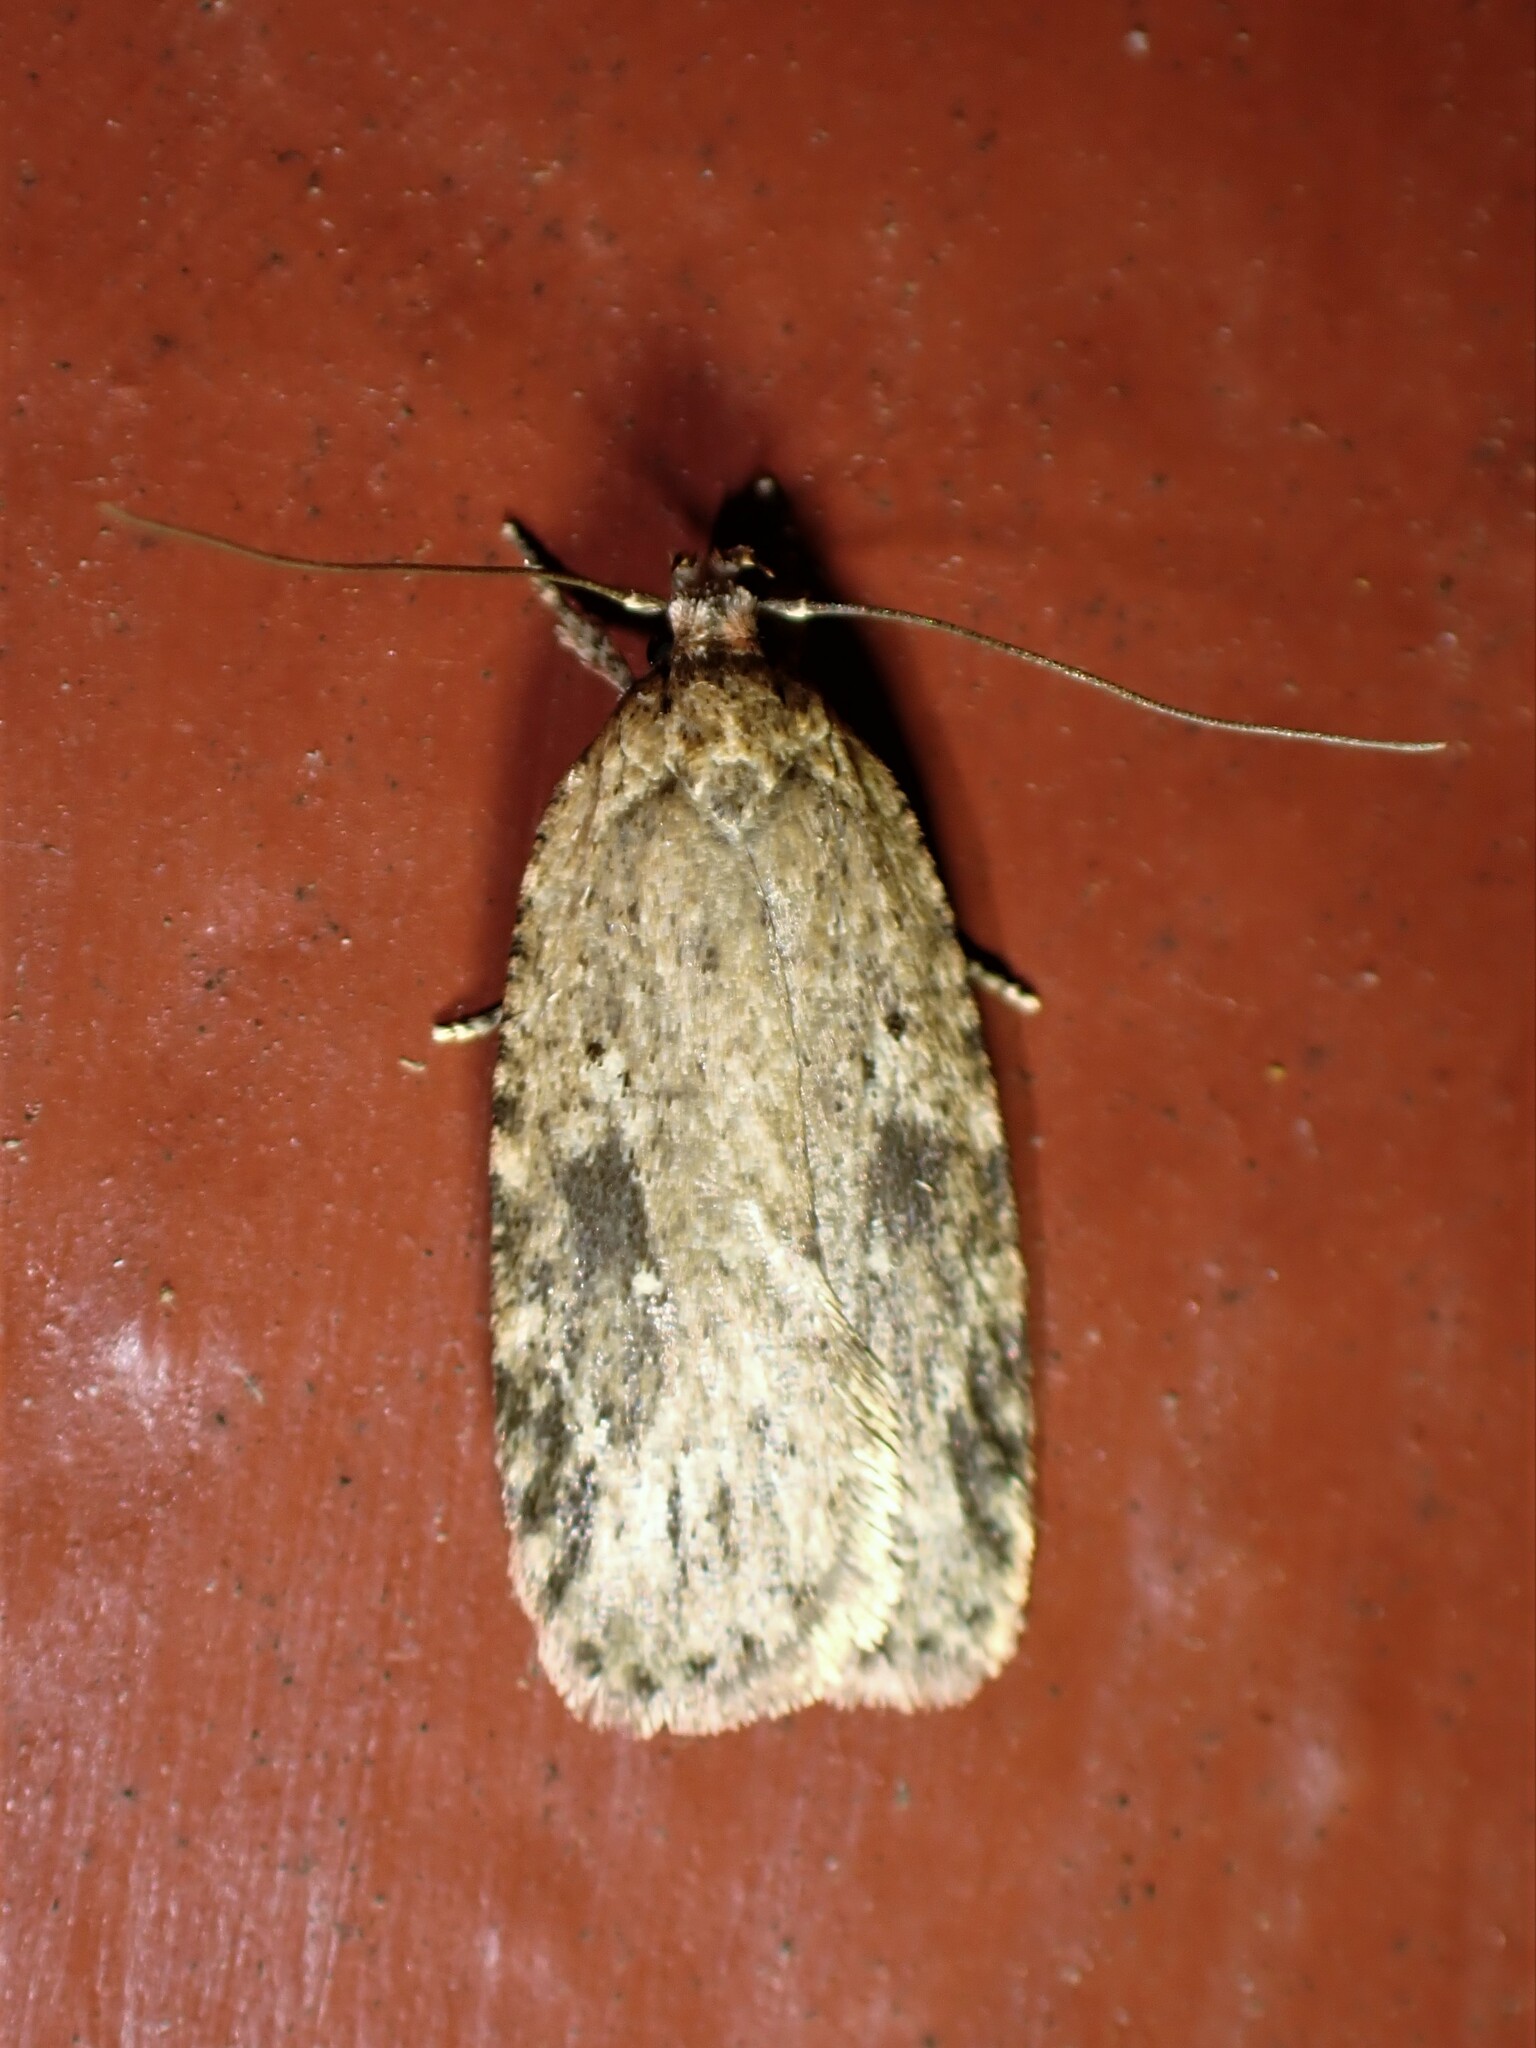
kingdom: Animalia
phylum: Arthropoda
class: Insecta
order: Lepidoptera
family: Depressariidae
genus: Agonopterix
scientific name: Agonopterix pulvipennella
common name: Goldenrod leafffolder
